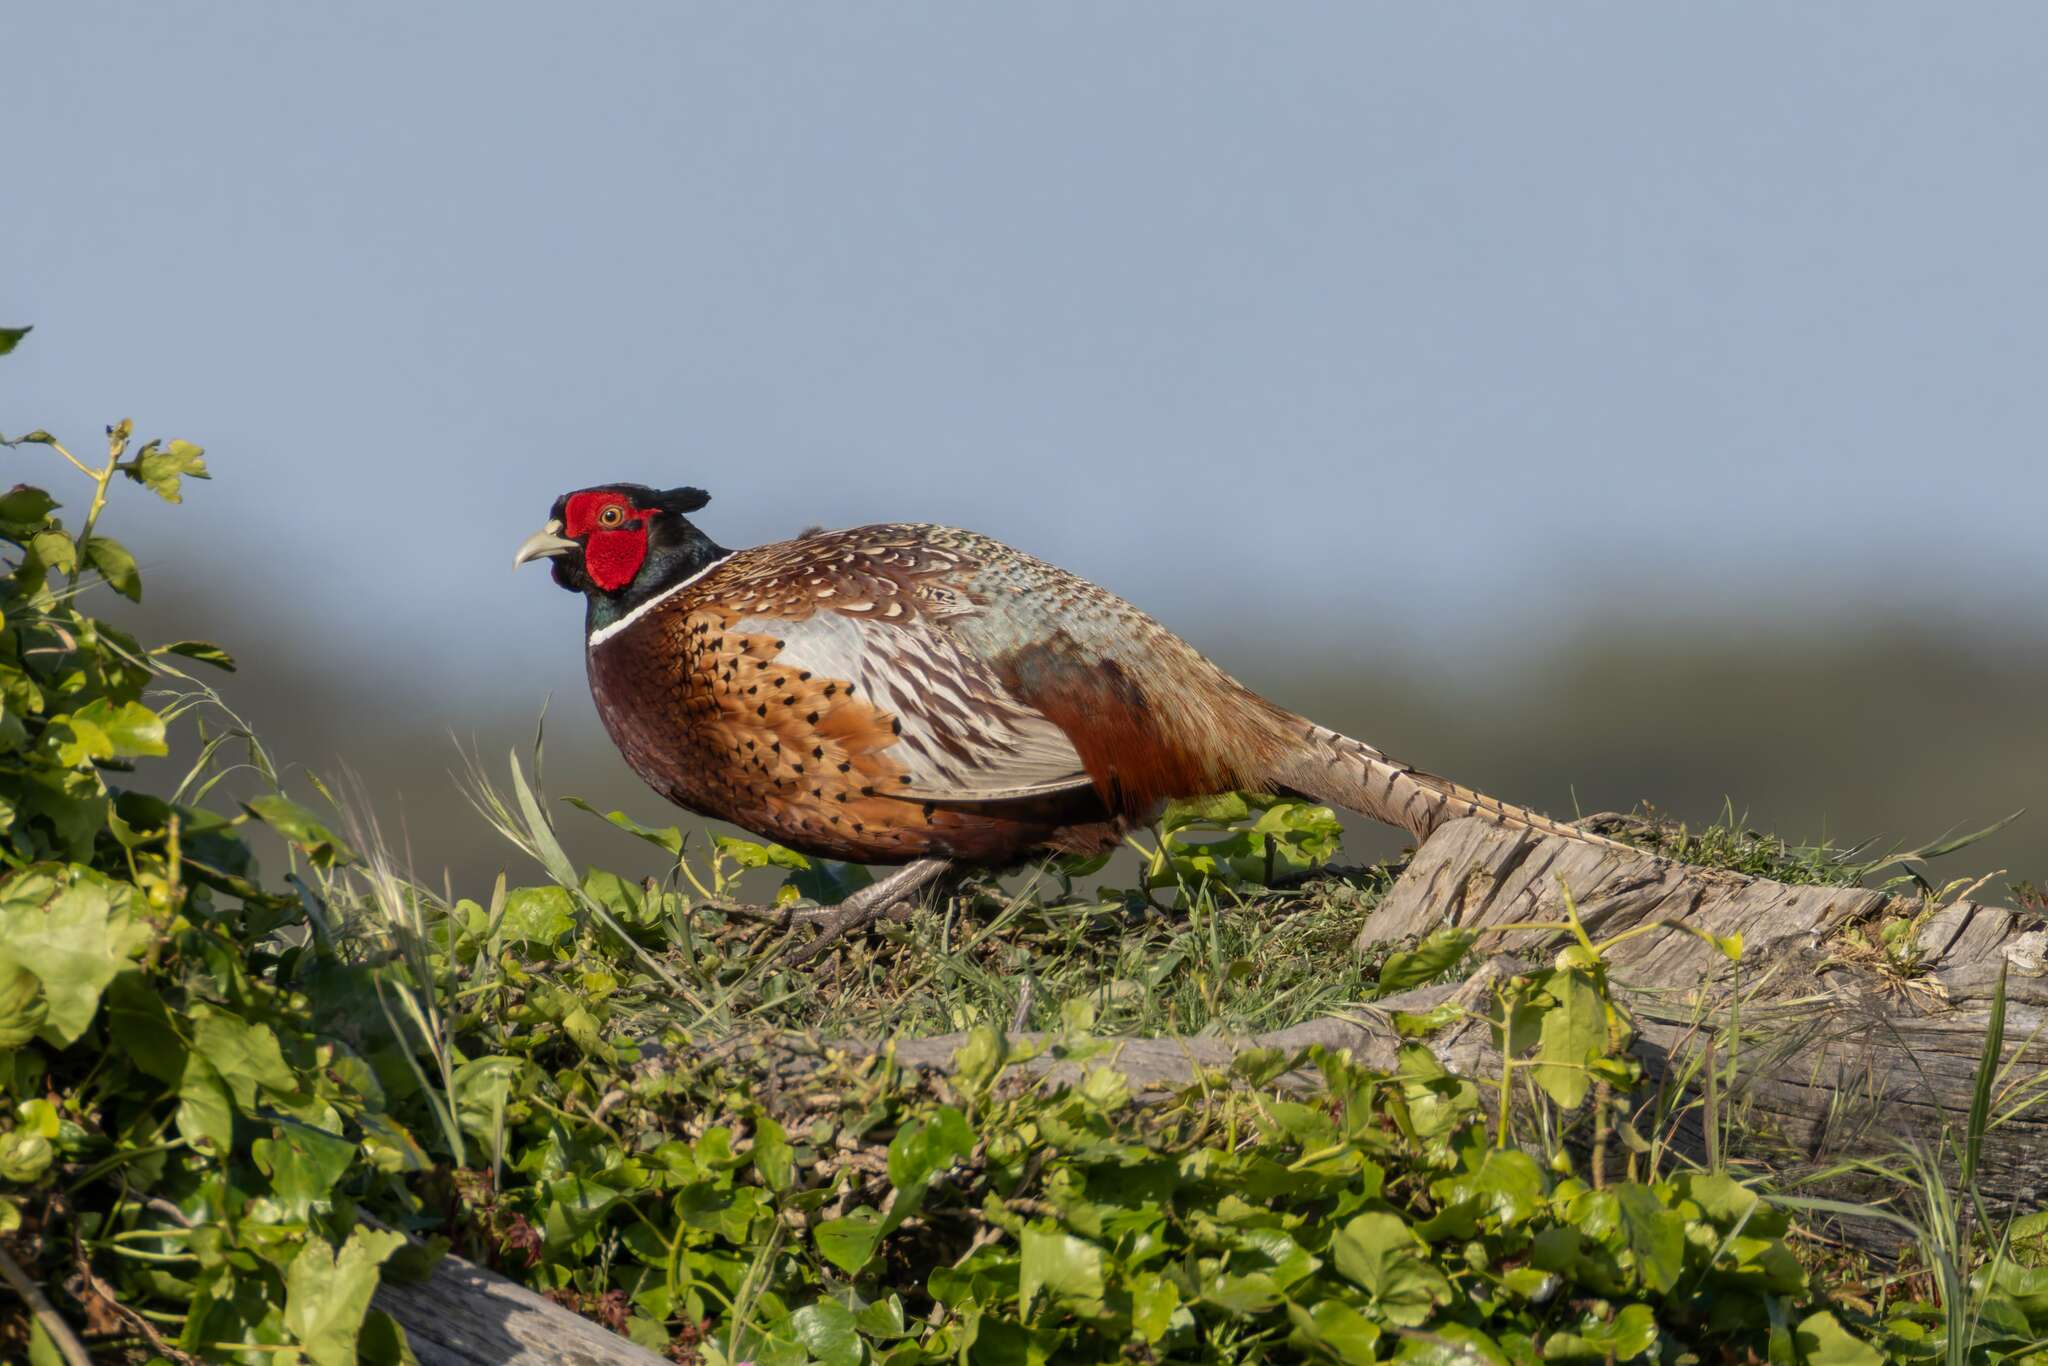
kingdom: Animalia
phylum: Chordata
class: Aves
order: Galliformes
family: Phasianidae
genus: Phasianus
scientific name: Phasianus colchicus
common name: Common pheasant
